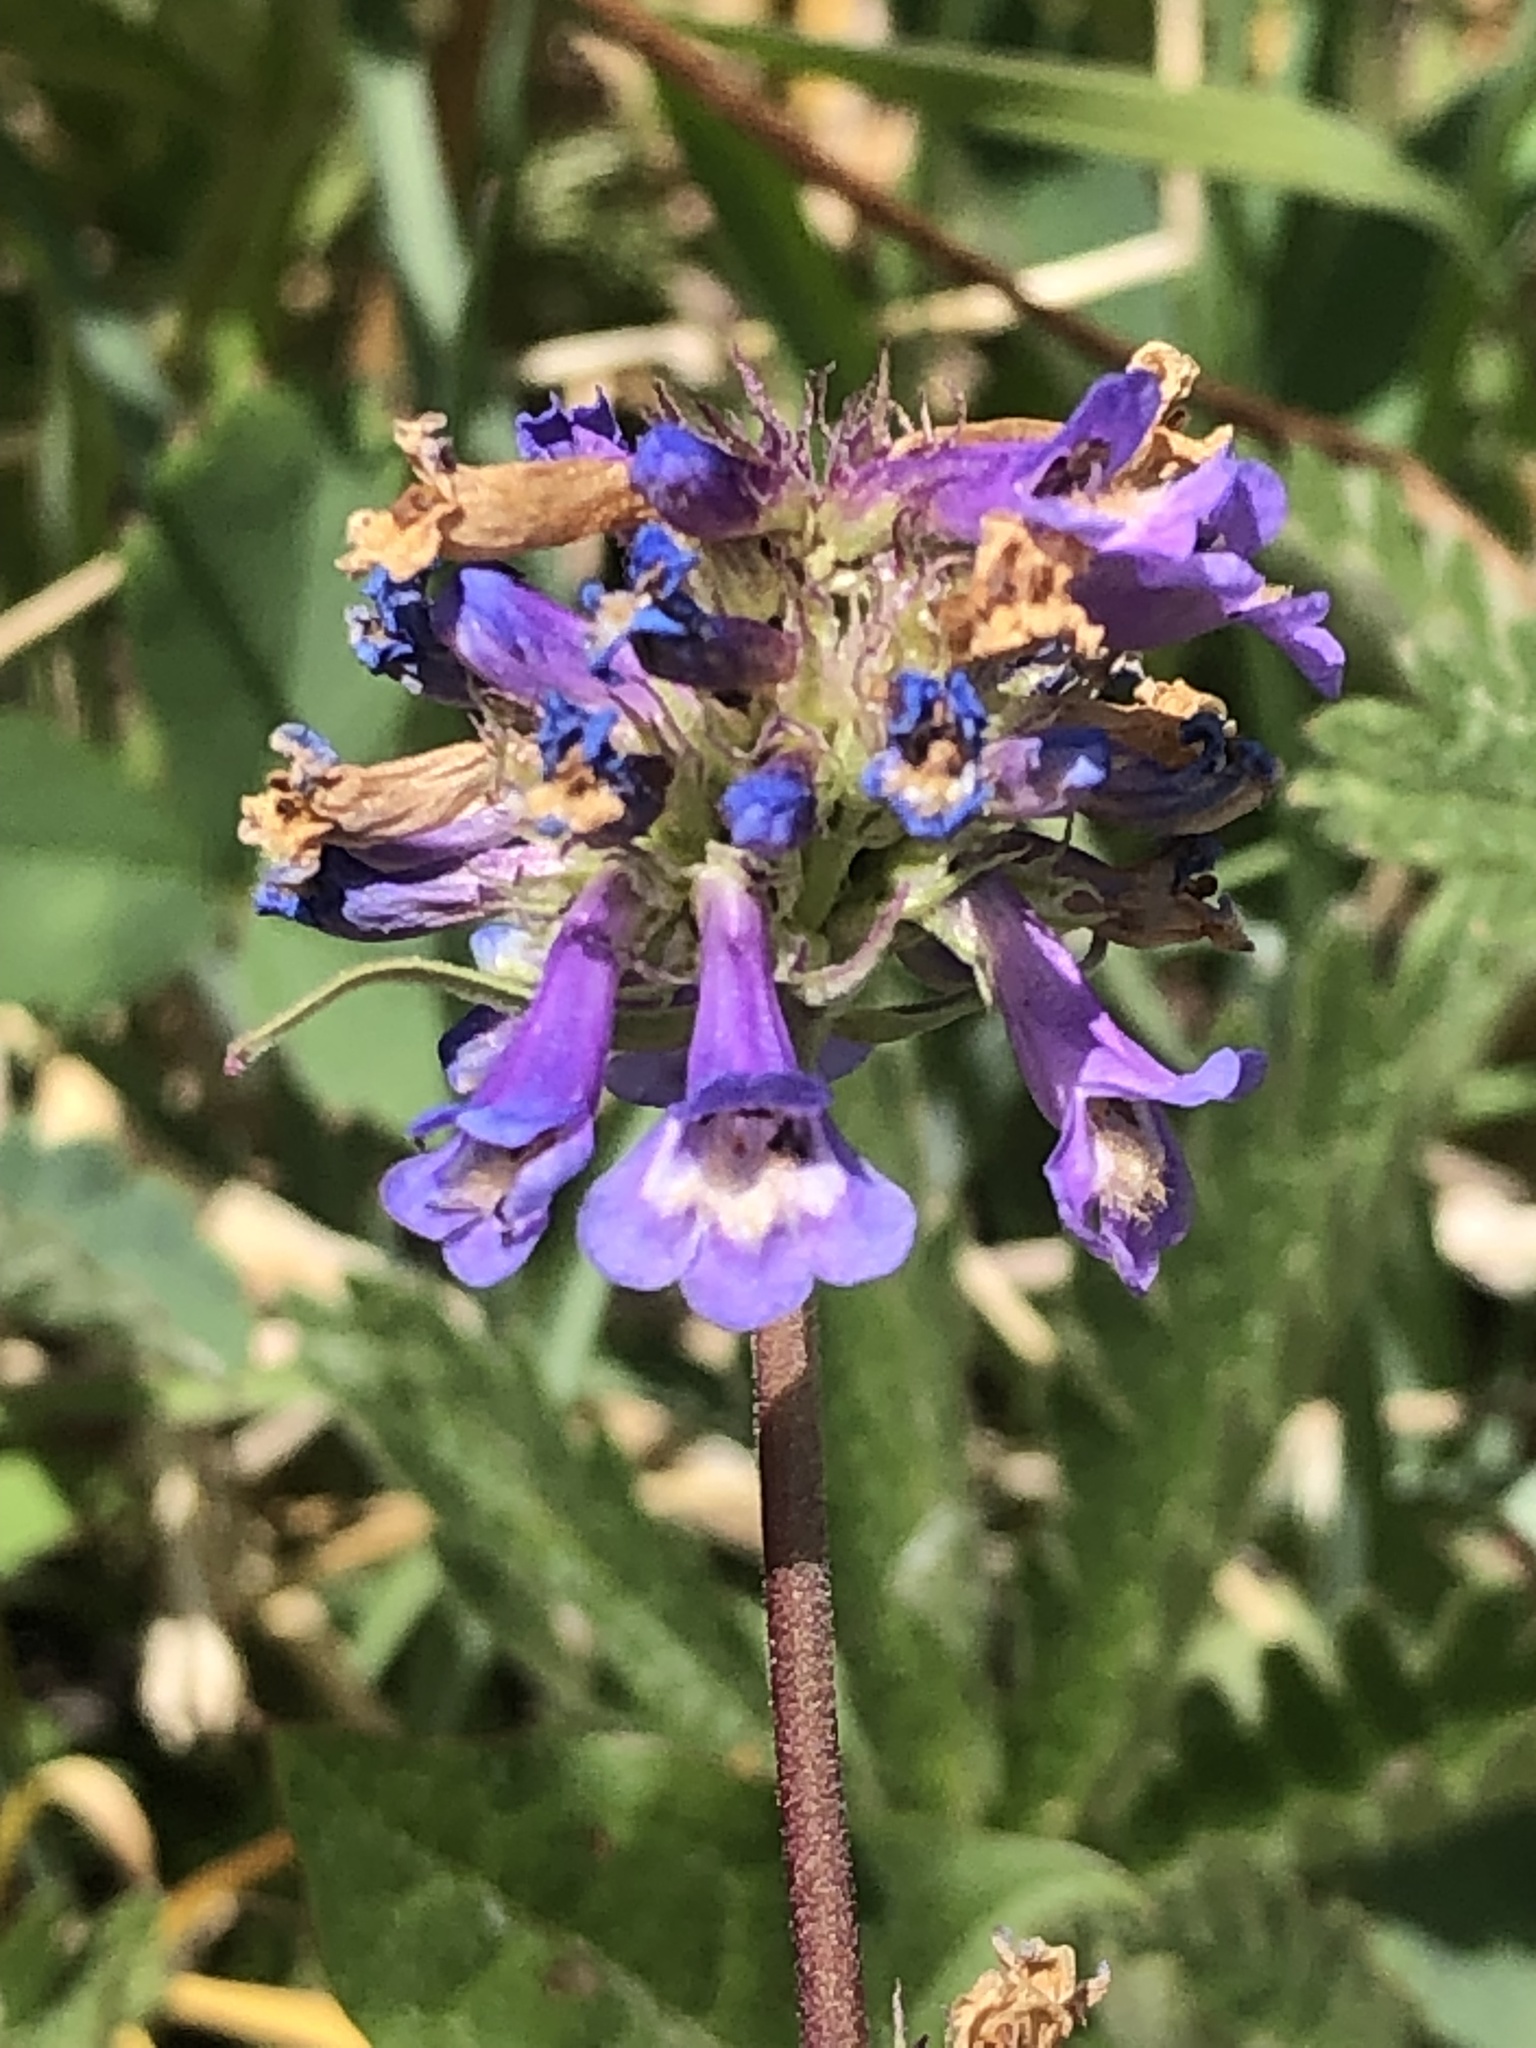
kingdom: Plantae
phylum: Tracheophyta
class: Magnoliopsida
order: Lamiales
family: Plantaginaceae
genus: Penstemon
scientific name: Penstemon procerus
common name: Small-flower penstemon
